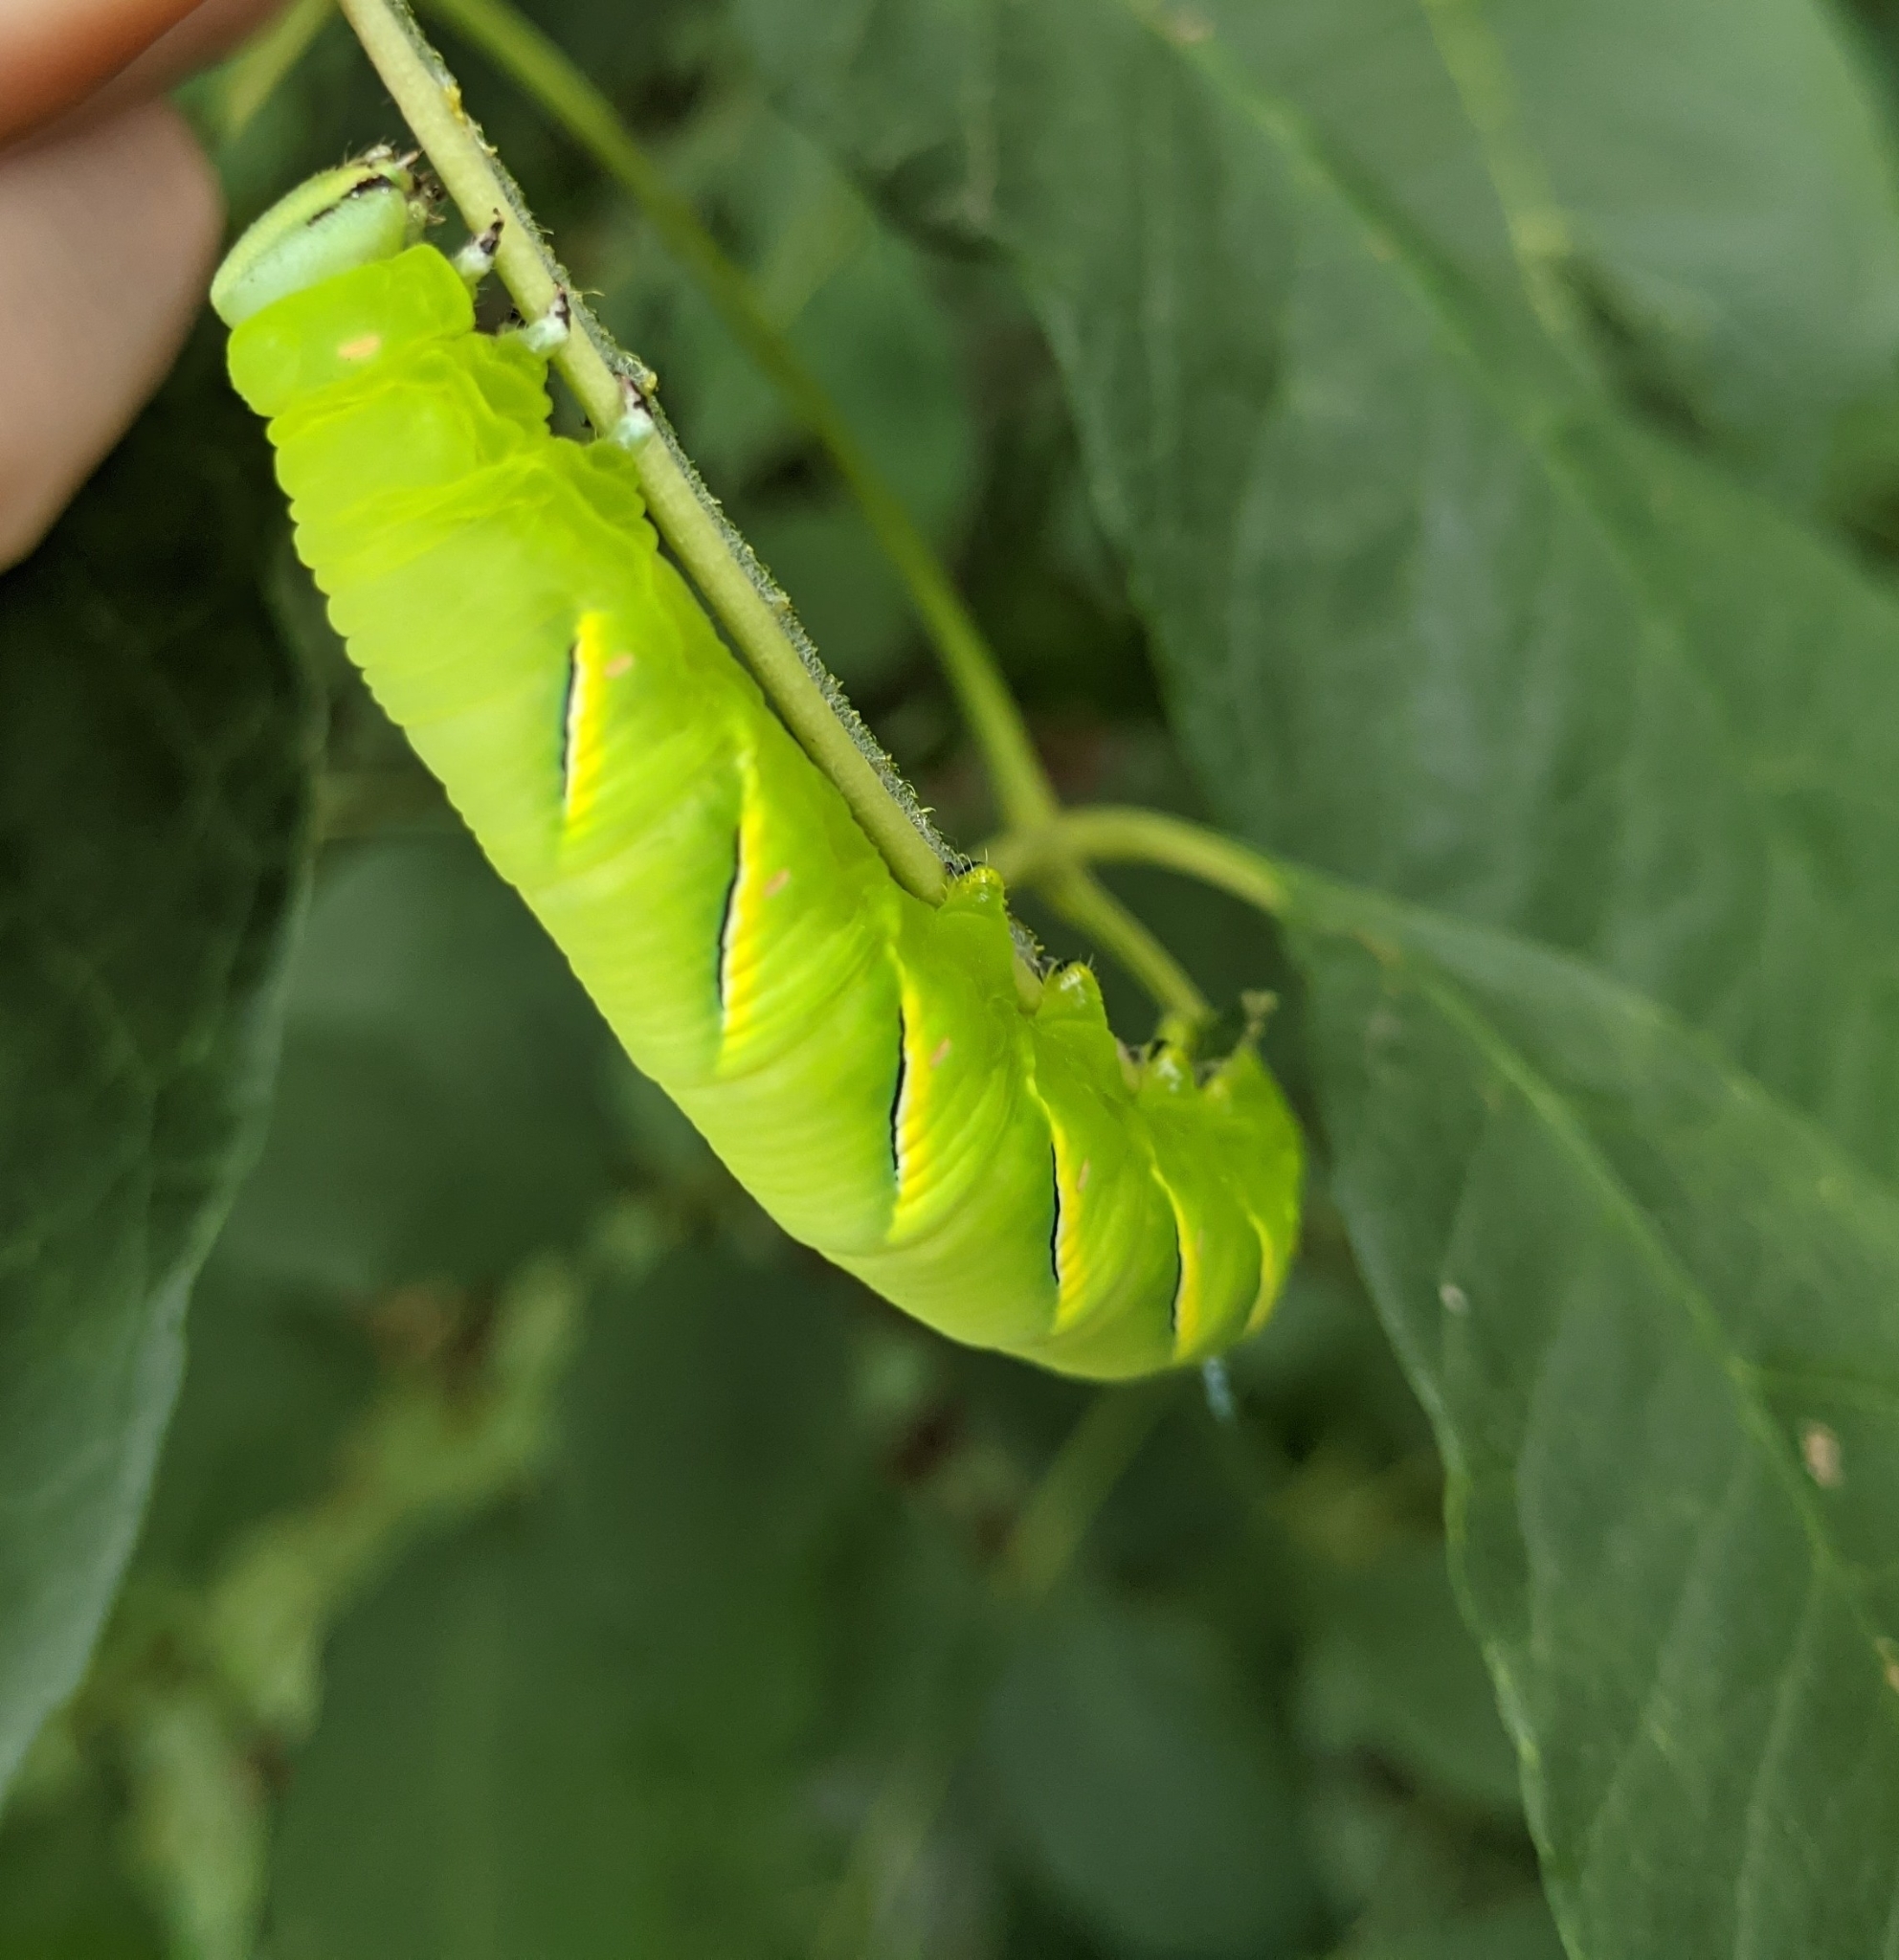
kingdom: Animalia
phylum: Arthropoda
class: Insecta
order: Lepidoptera
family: Sphingidae
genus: Sphinx
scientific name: Sphinx kalmiae
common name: Laurel sphinx
